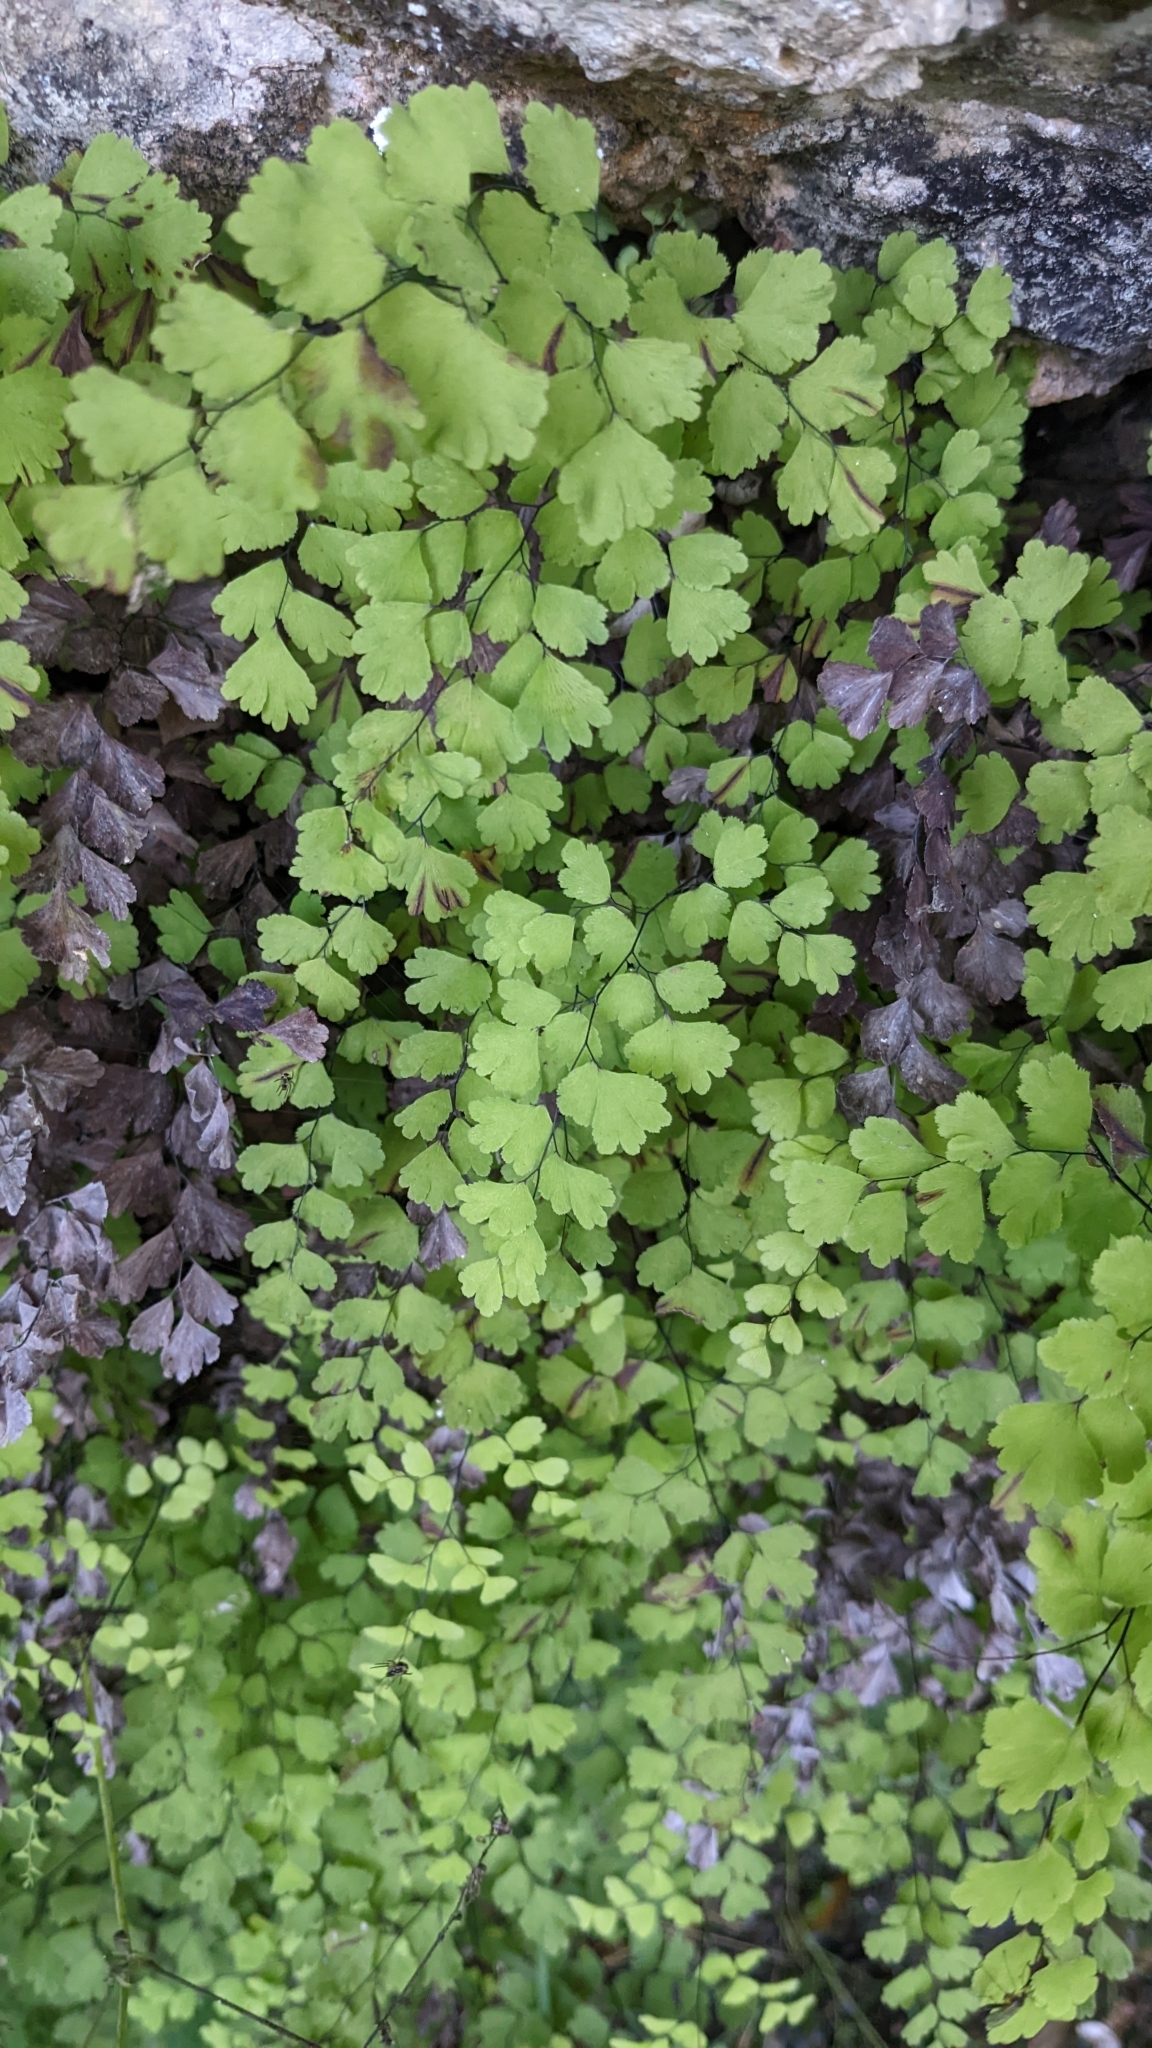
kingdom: Plantae
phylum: Tracheophyta
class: Polypodiopsida
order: Polypodiales
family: Pteridaceae
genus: Adiantum
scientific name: Adiantum capillus-veneris
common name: Maidenhair fern
